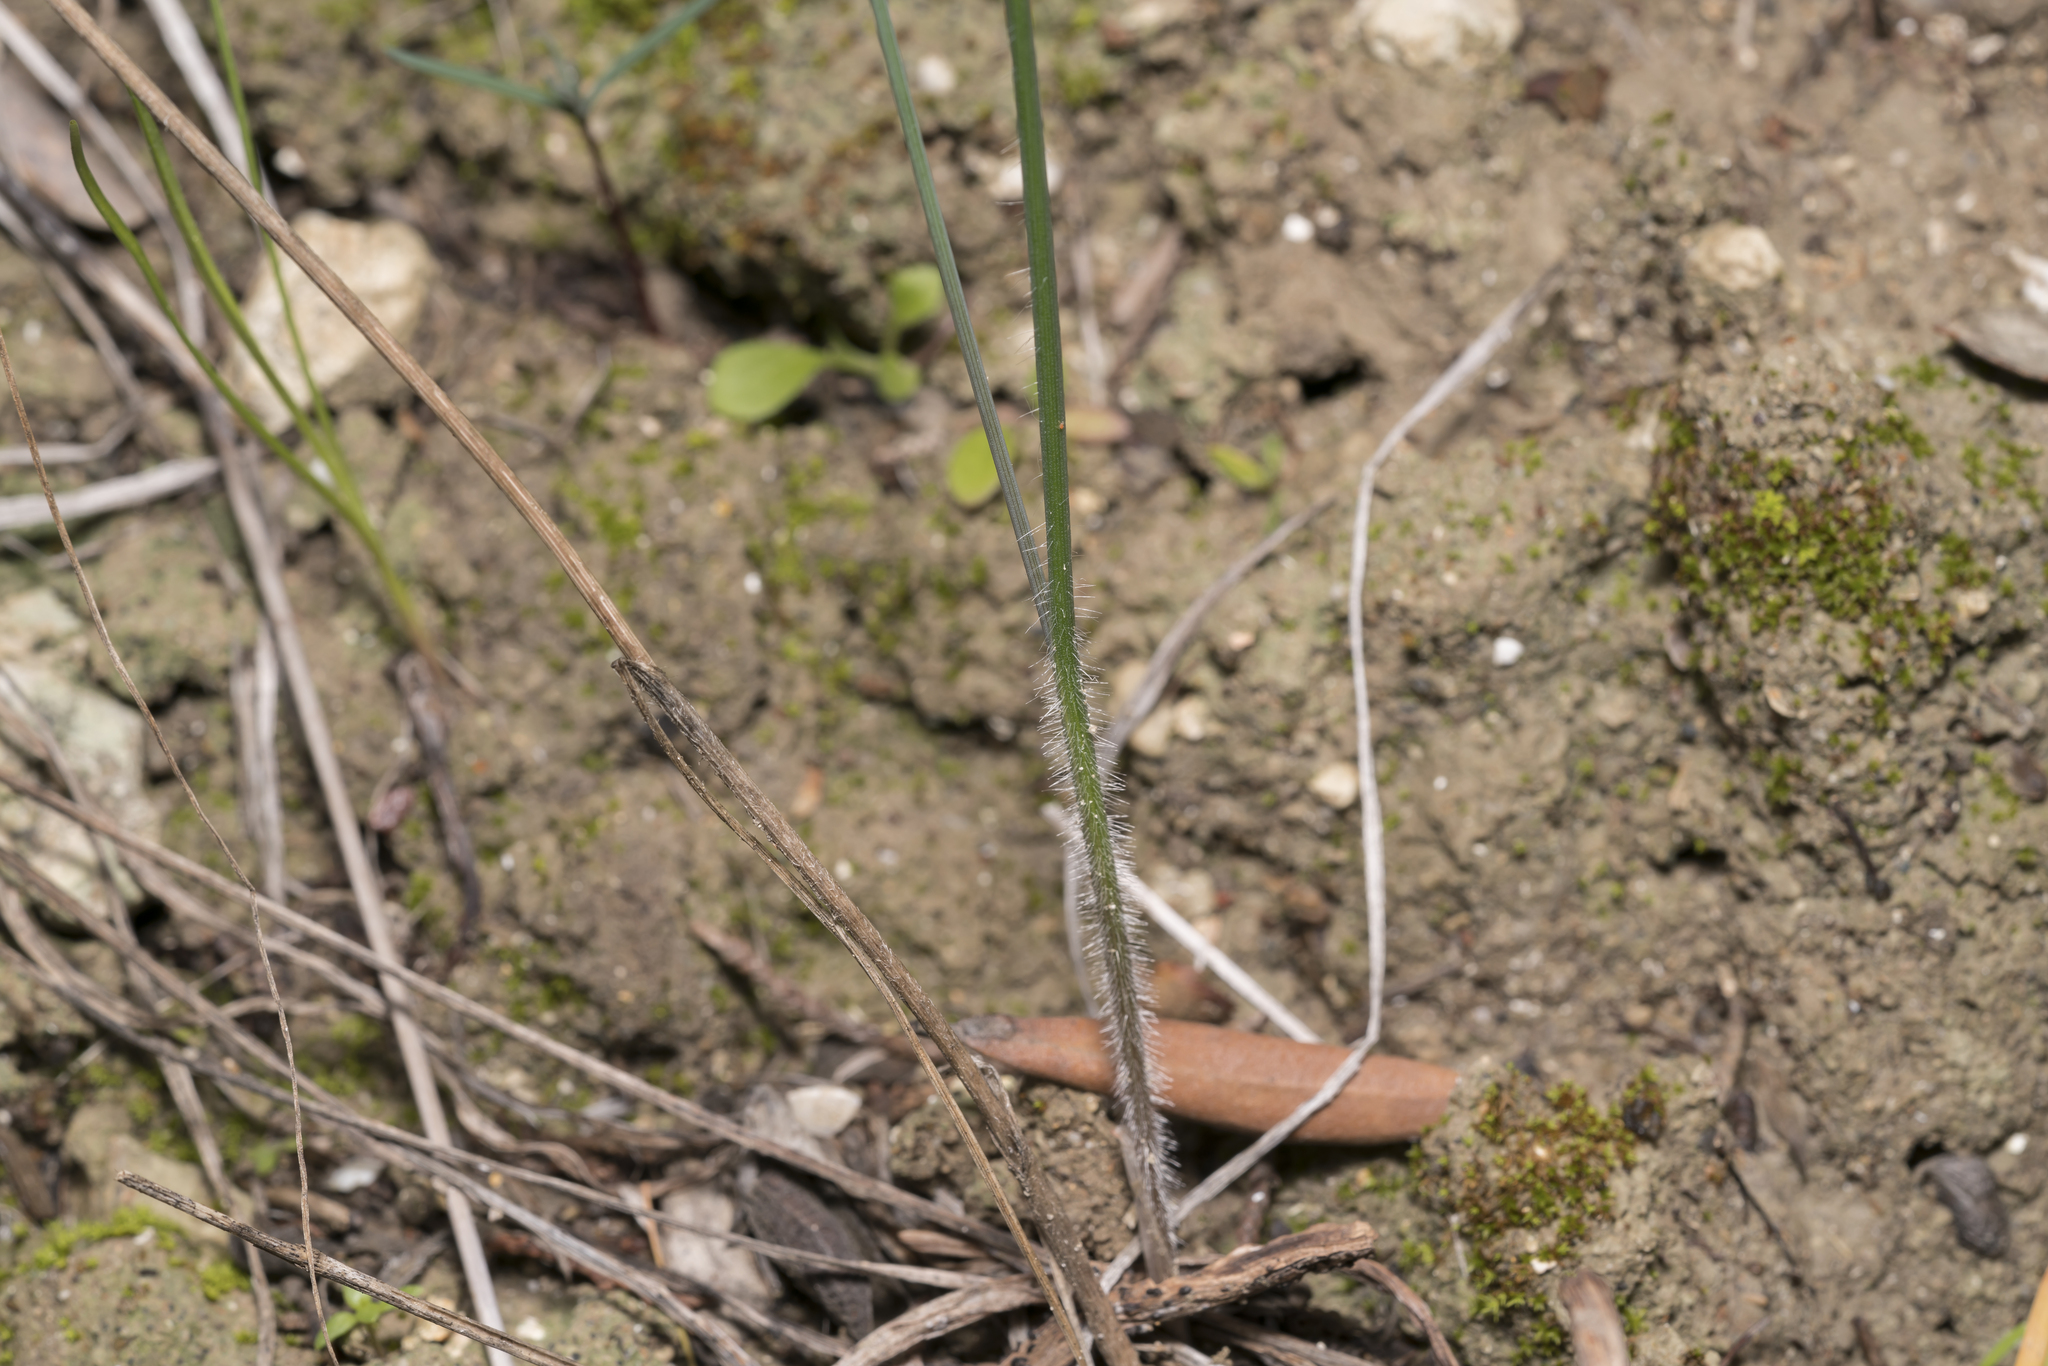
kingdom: Plantae
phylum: Tracheophyta
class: Liliopsida
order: Asparagales
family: Amaryllidaceae
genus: Allium
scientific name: Allium archeotrichon
